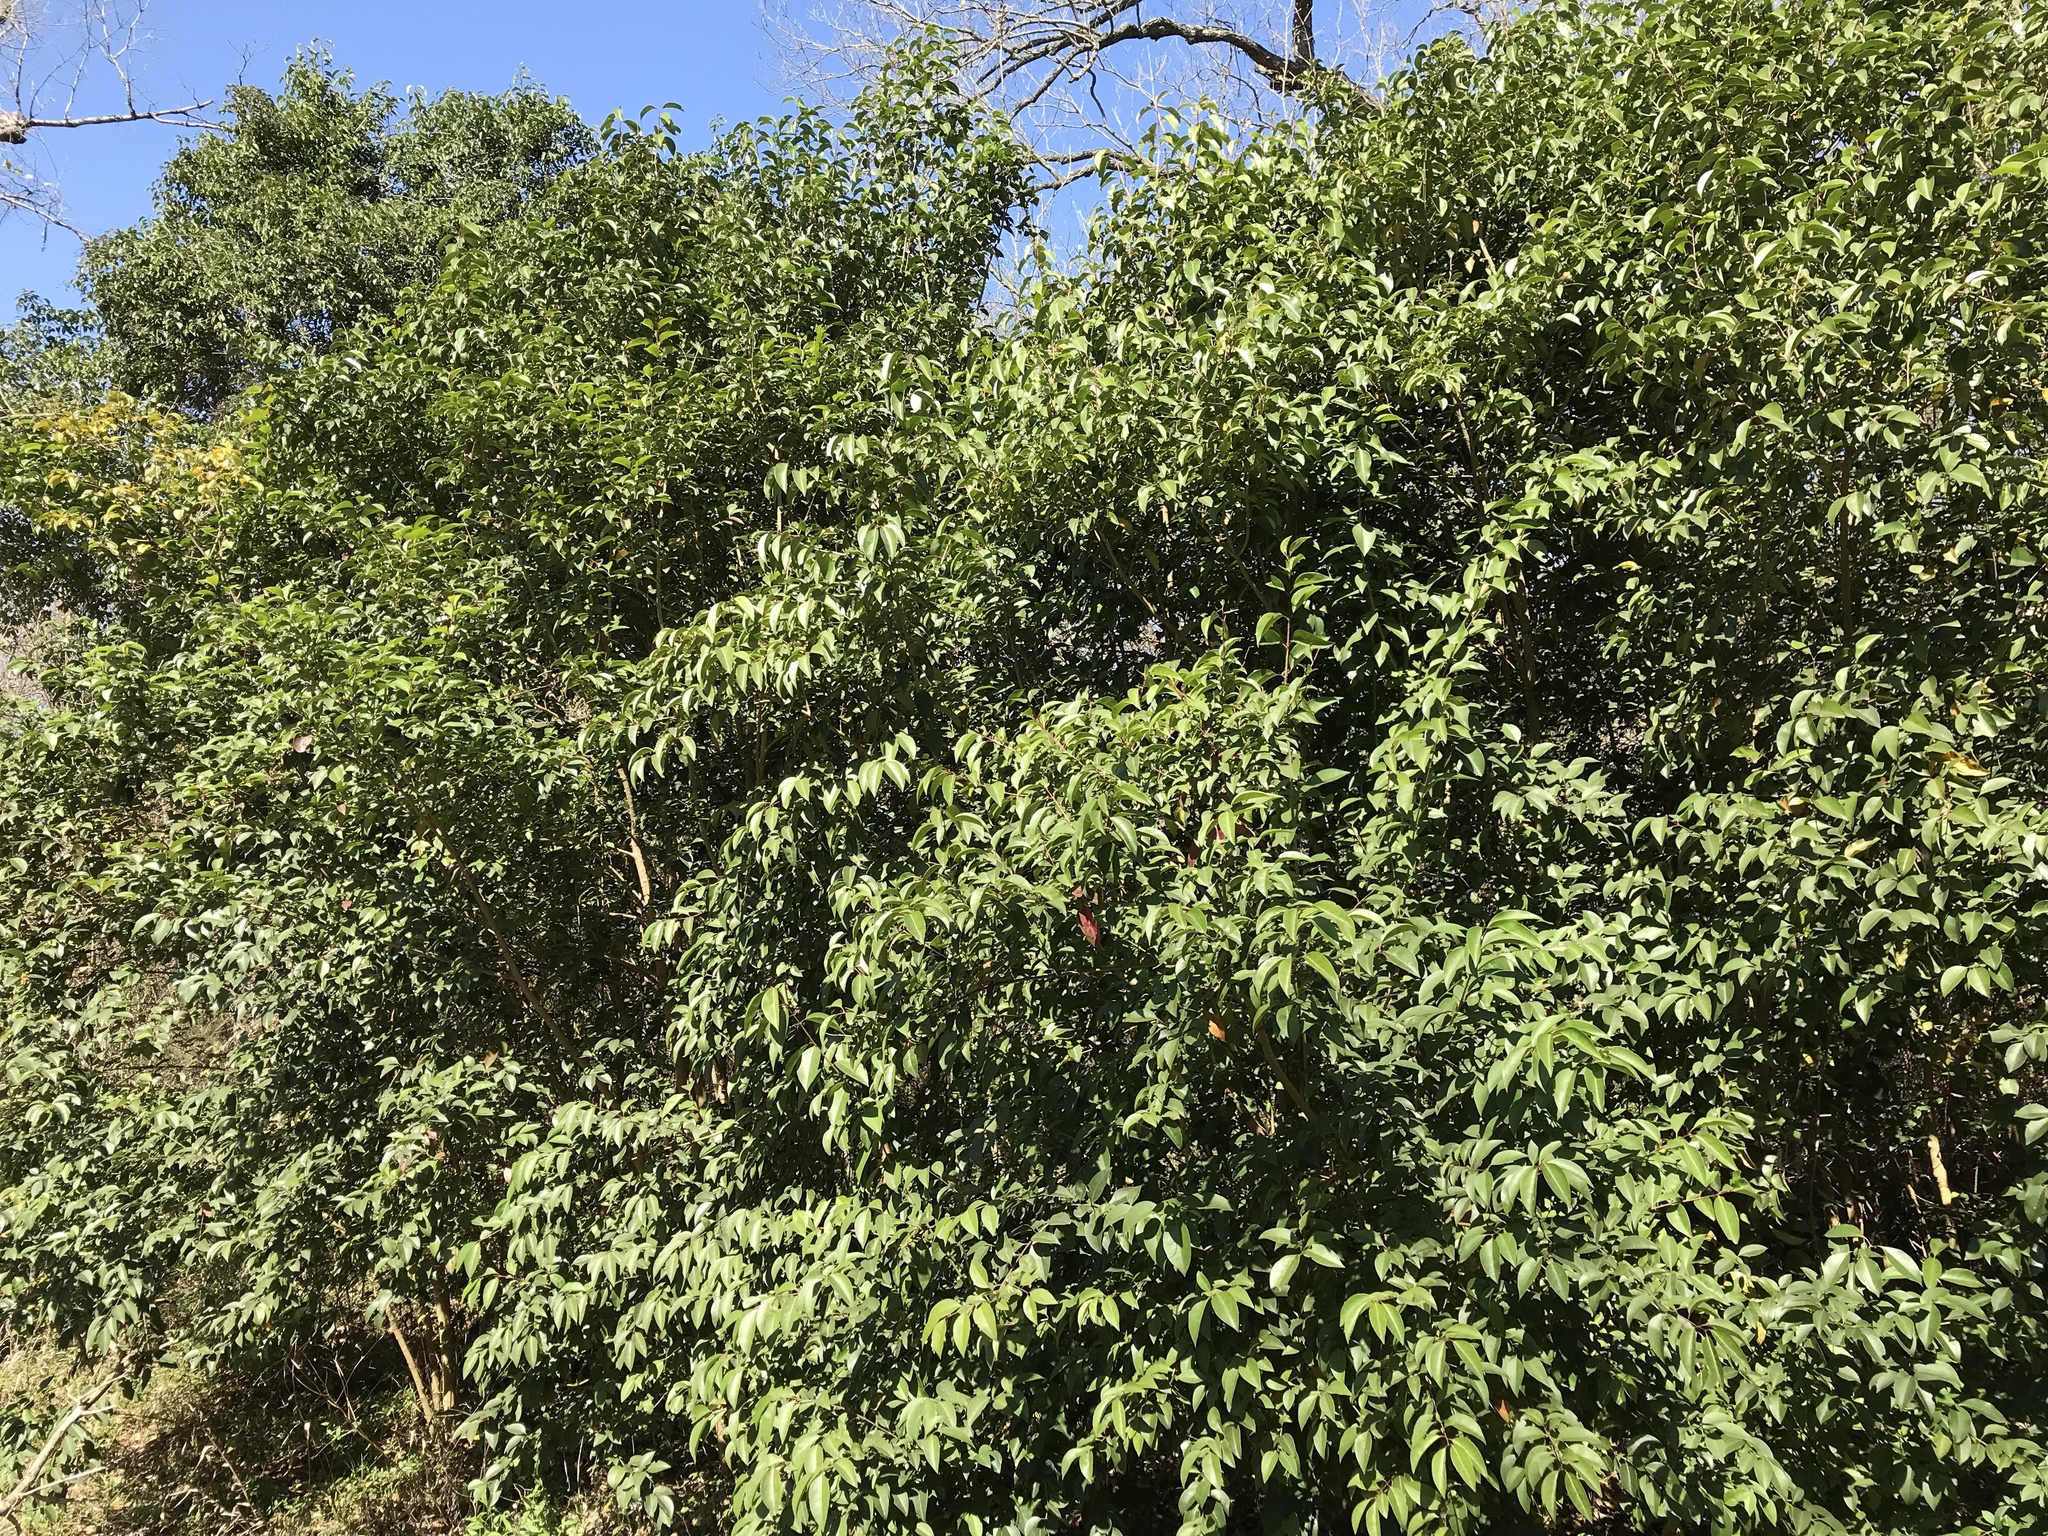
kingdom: Plantae
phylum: Tracheophyta
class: Magnoliopsida
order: Lamiales
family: Oleaceae
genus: Ligustrum
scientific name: Ligustrum lucidum
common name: Glossy privet
